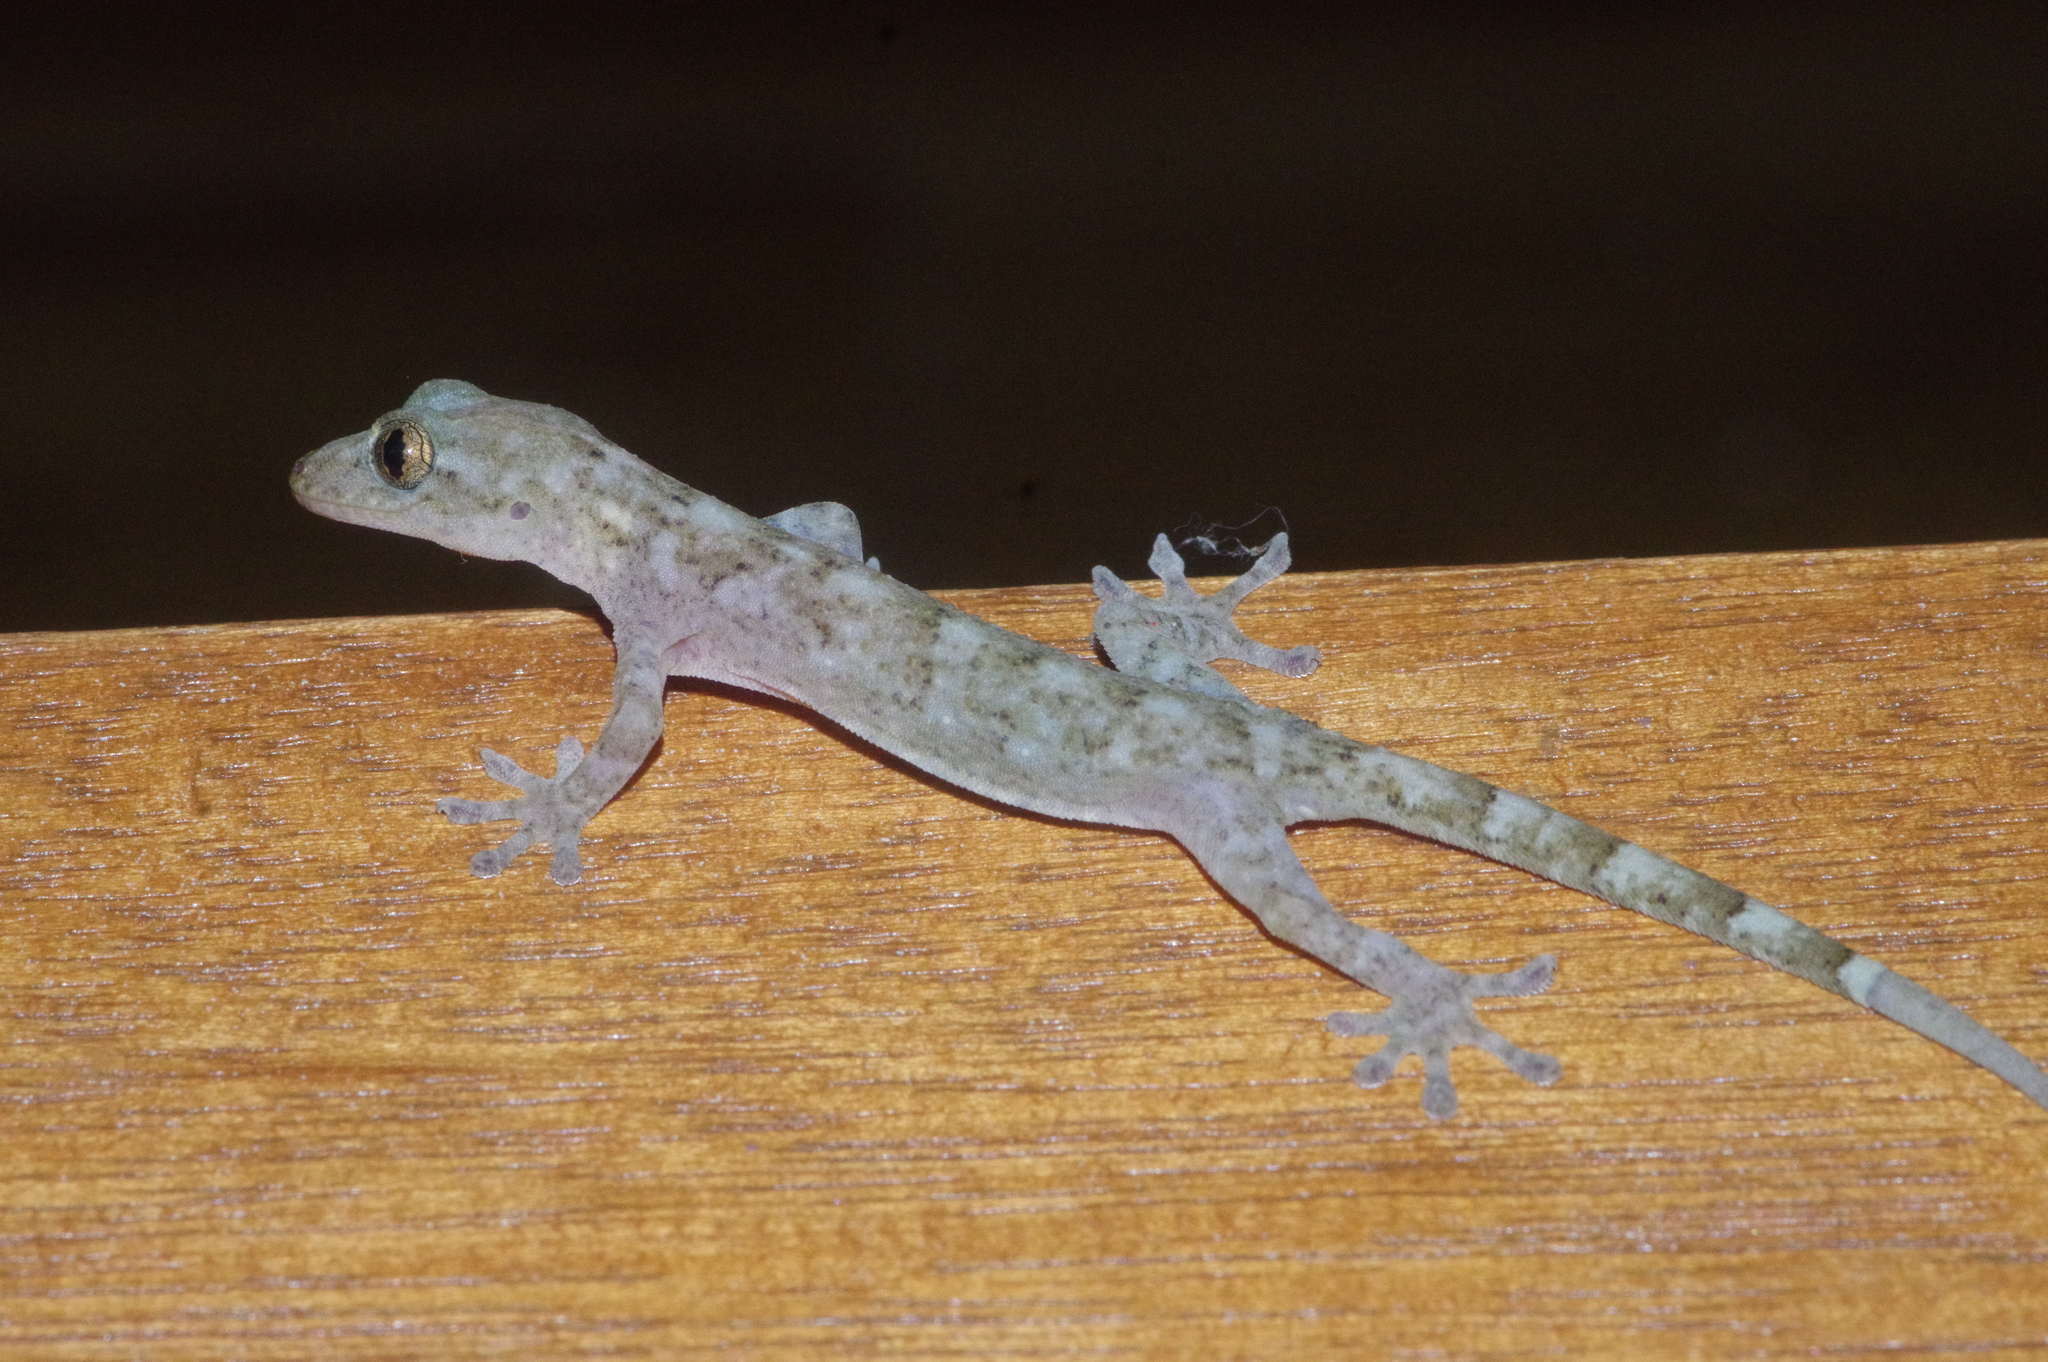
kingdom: Animalia
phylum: Chordata
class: Squamata
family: Gekkonidae
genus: Gekko
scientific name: Gekko hokouensis
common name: Kwangsi gecko
